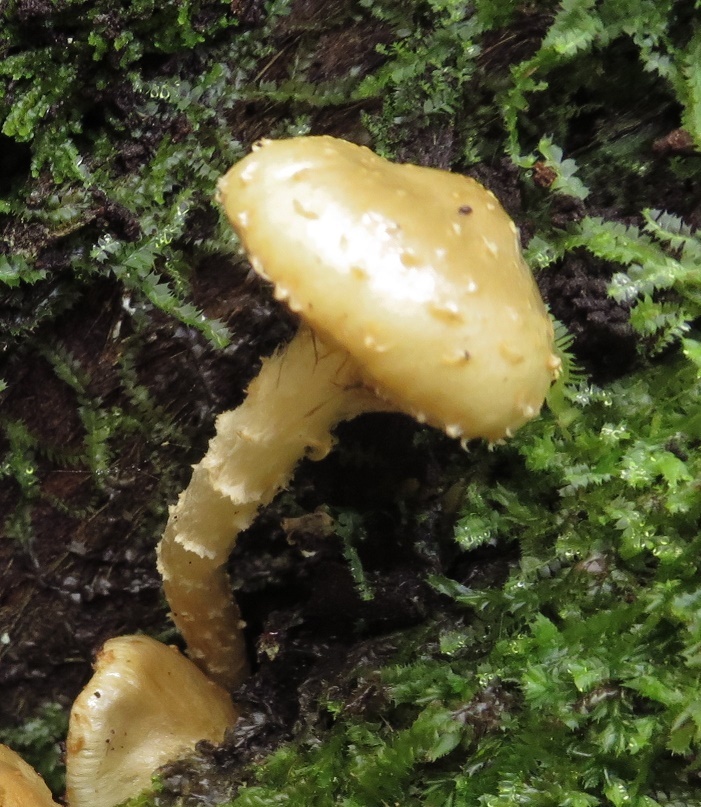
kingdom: Fungi
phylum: Basidiomycota
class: Agaricomycetes
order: Agaricales
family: Strophariaceae
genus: Pholiota
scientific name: Pholiota subflammans
